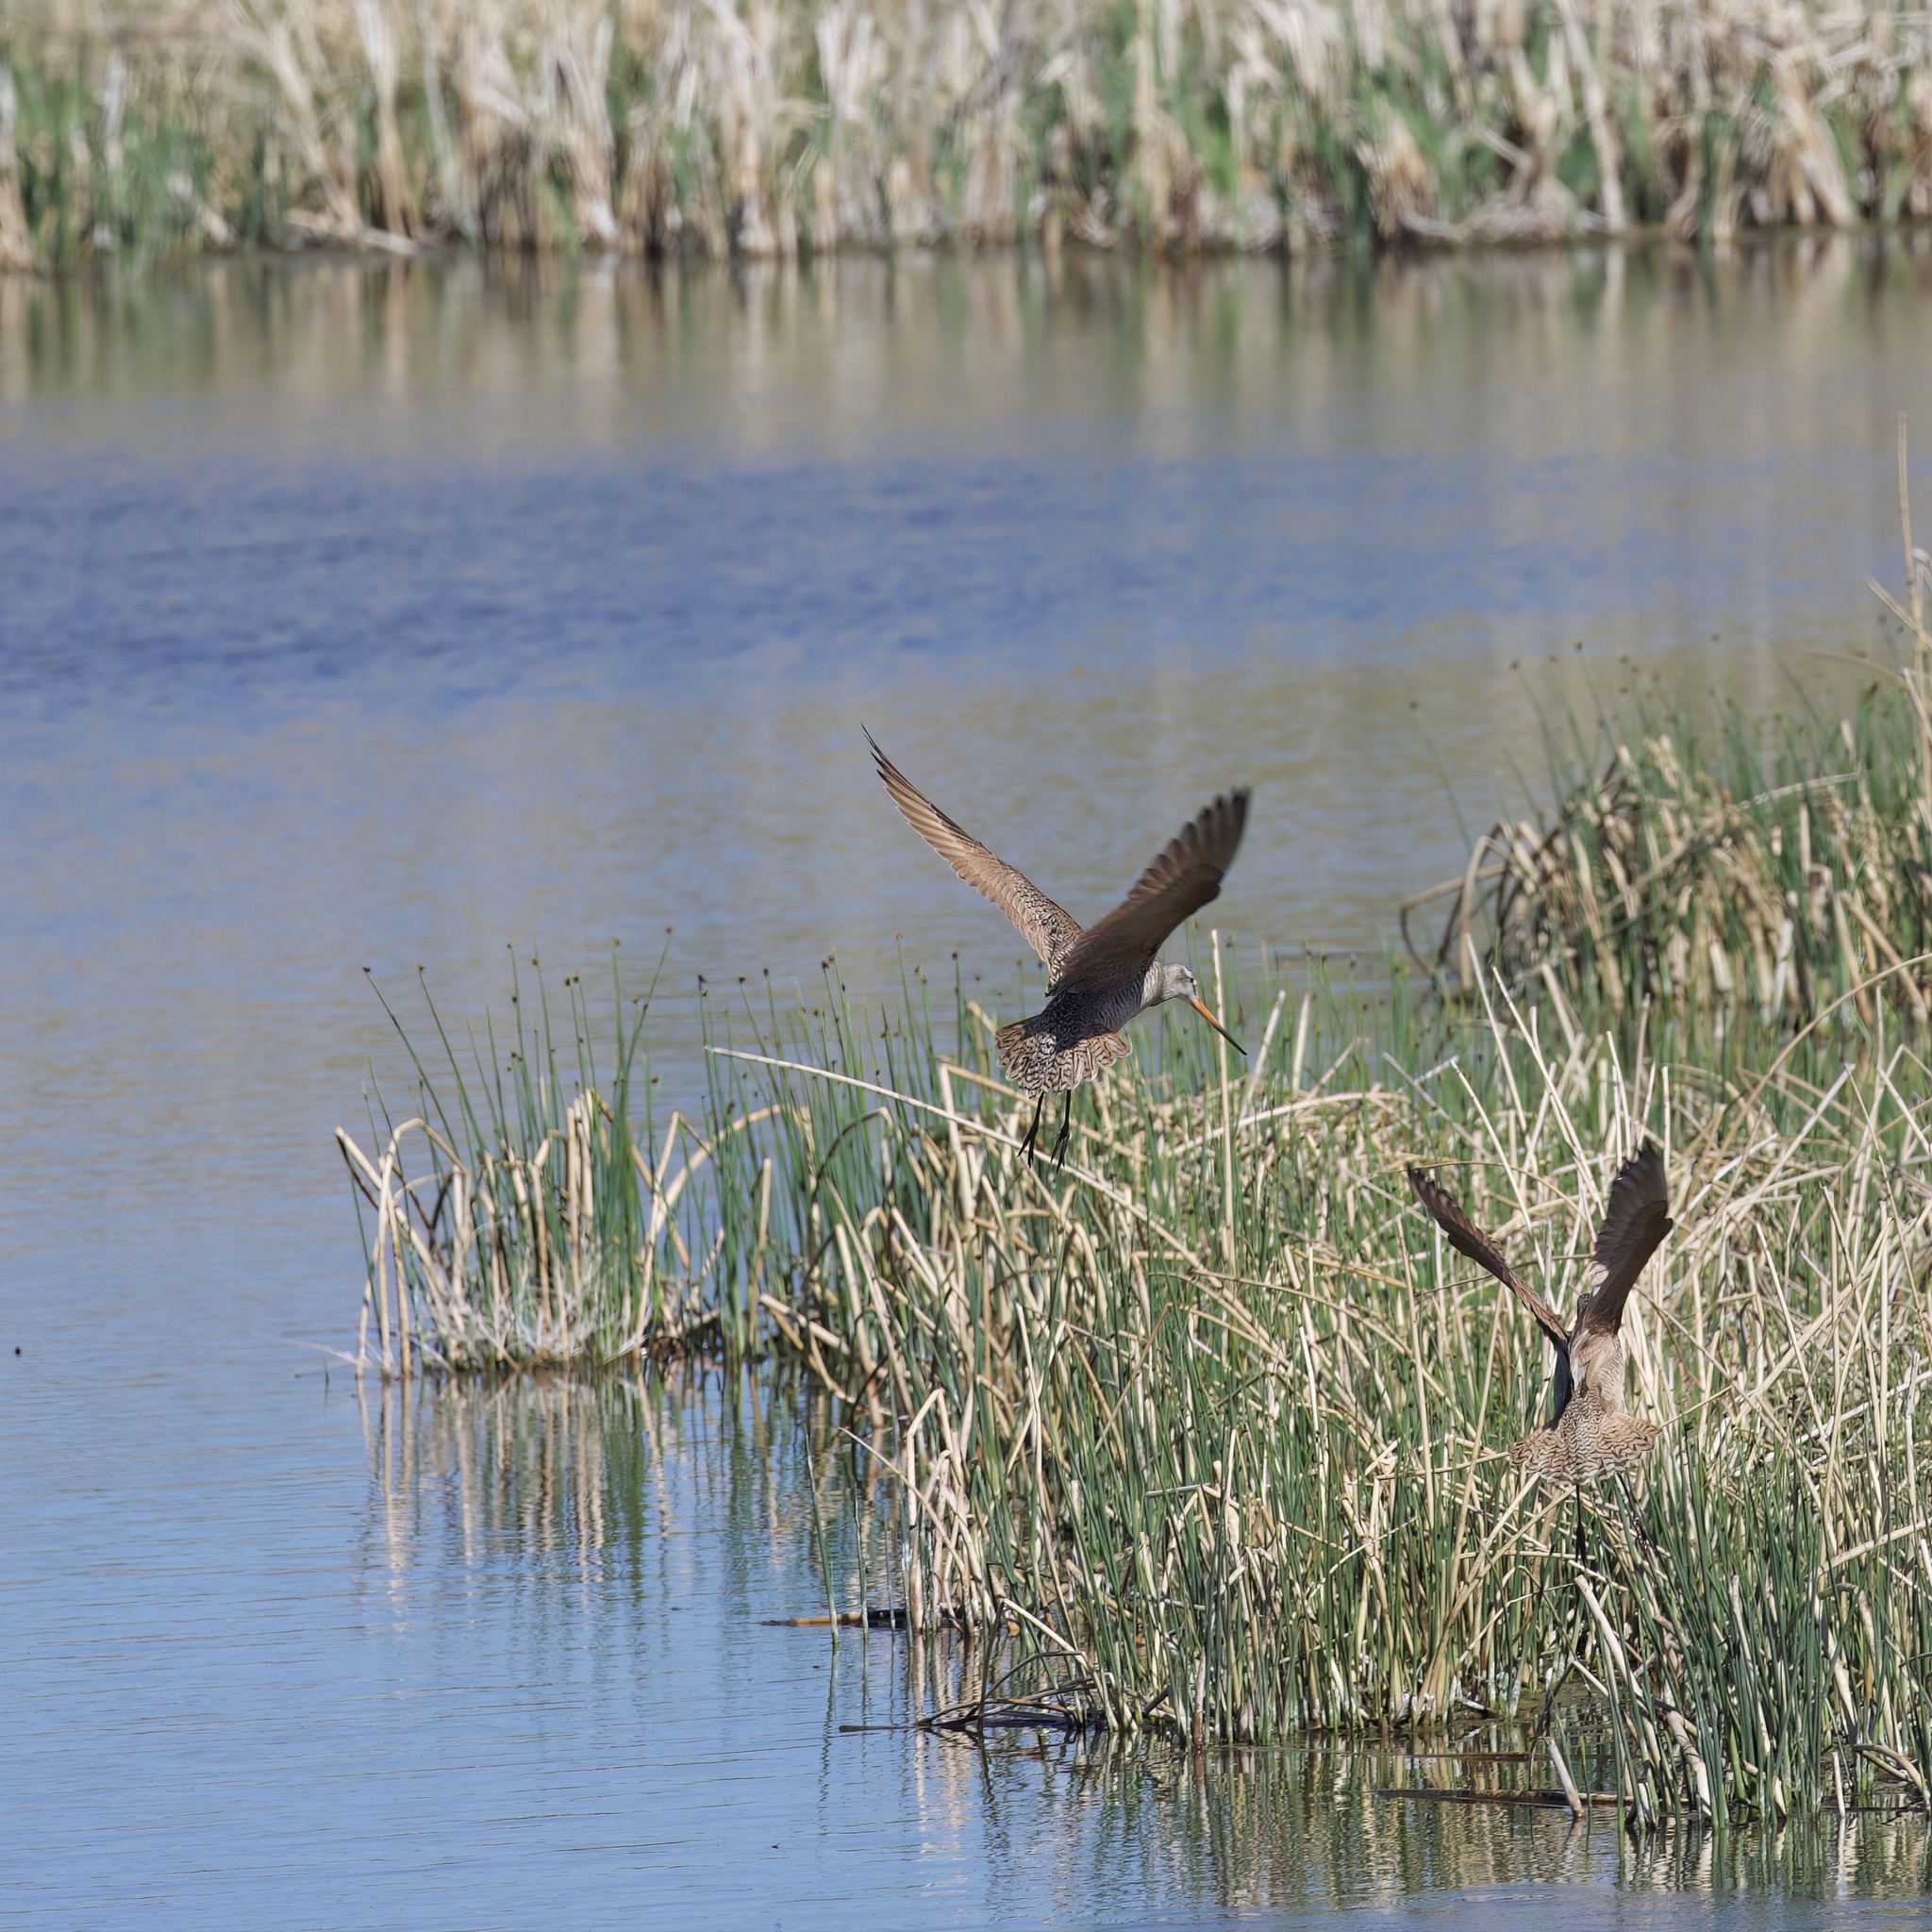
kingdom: Animalia
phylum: Chordata
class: Aves
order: Charadriiformes
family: Scolopacidae
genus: Limosa
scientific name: Limosa fedoa
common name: Marbled godwit
